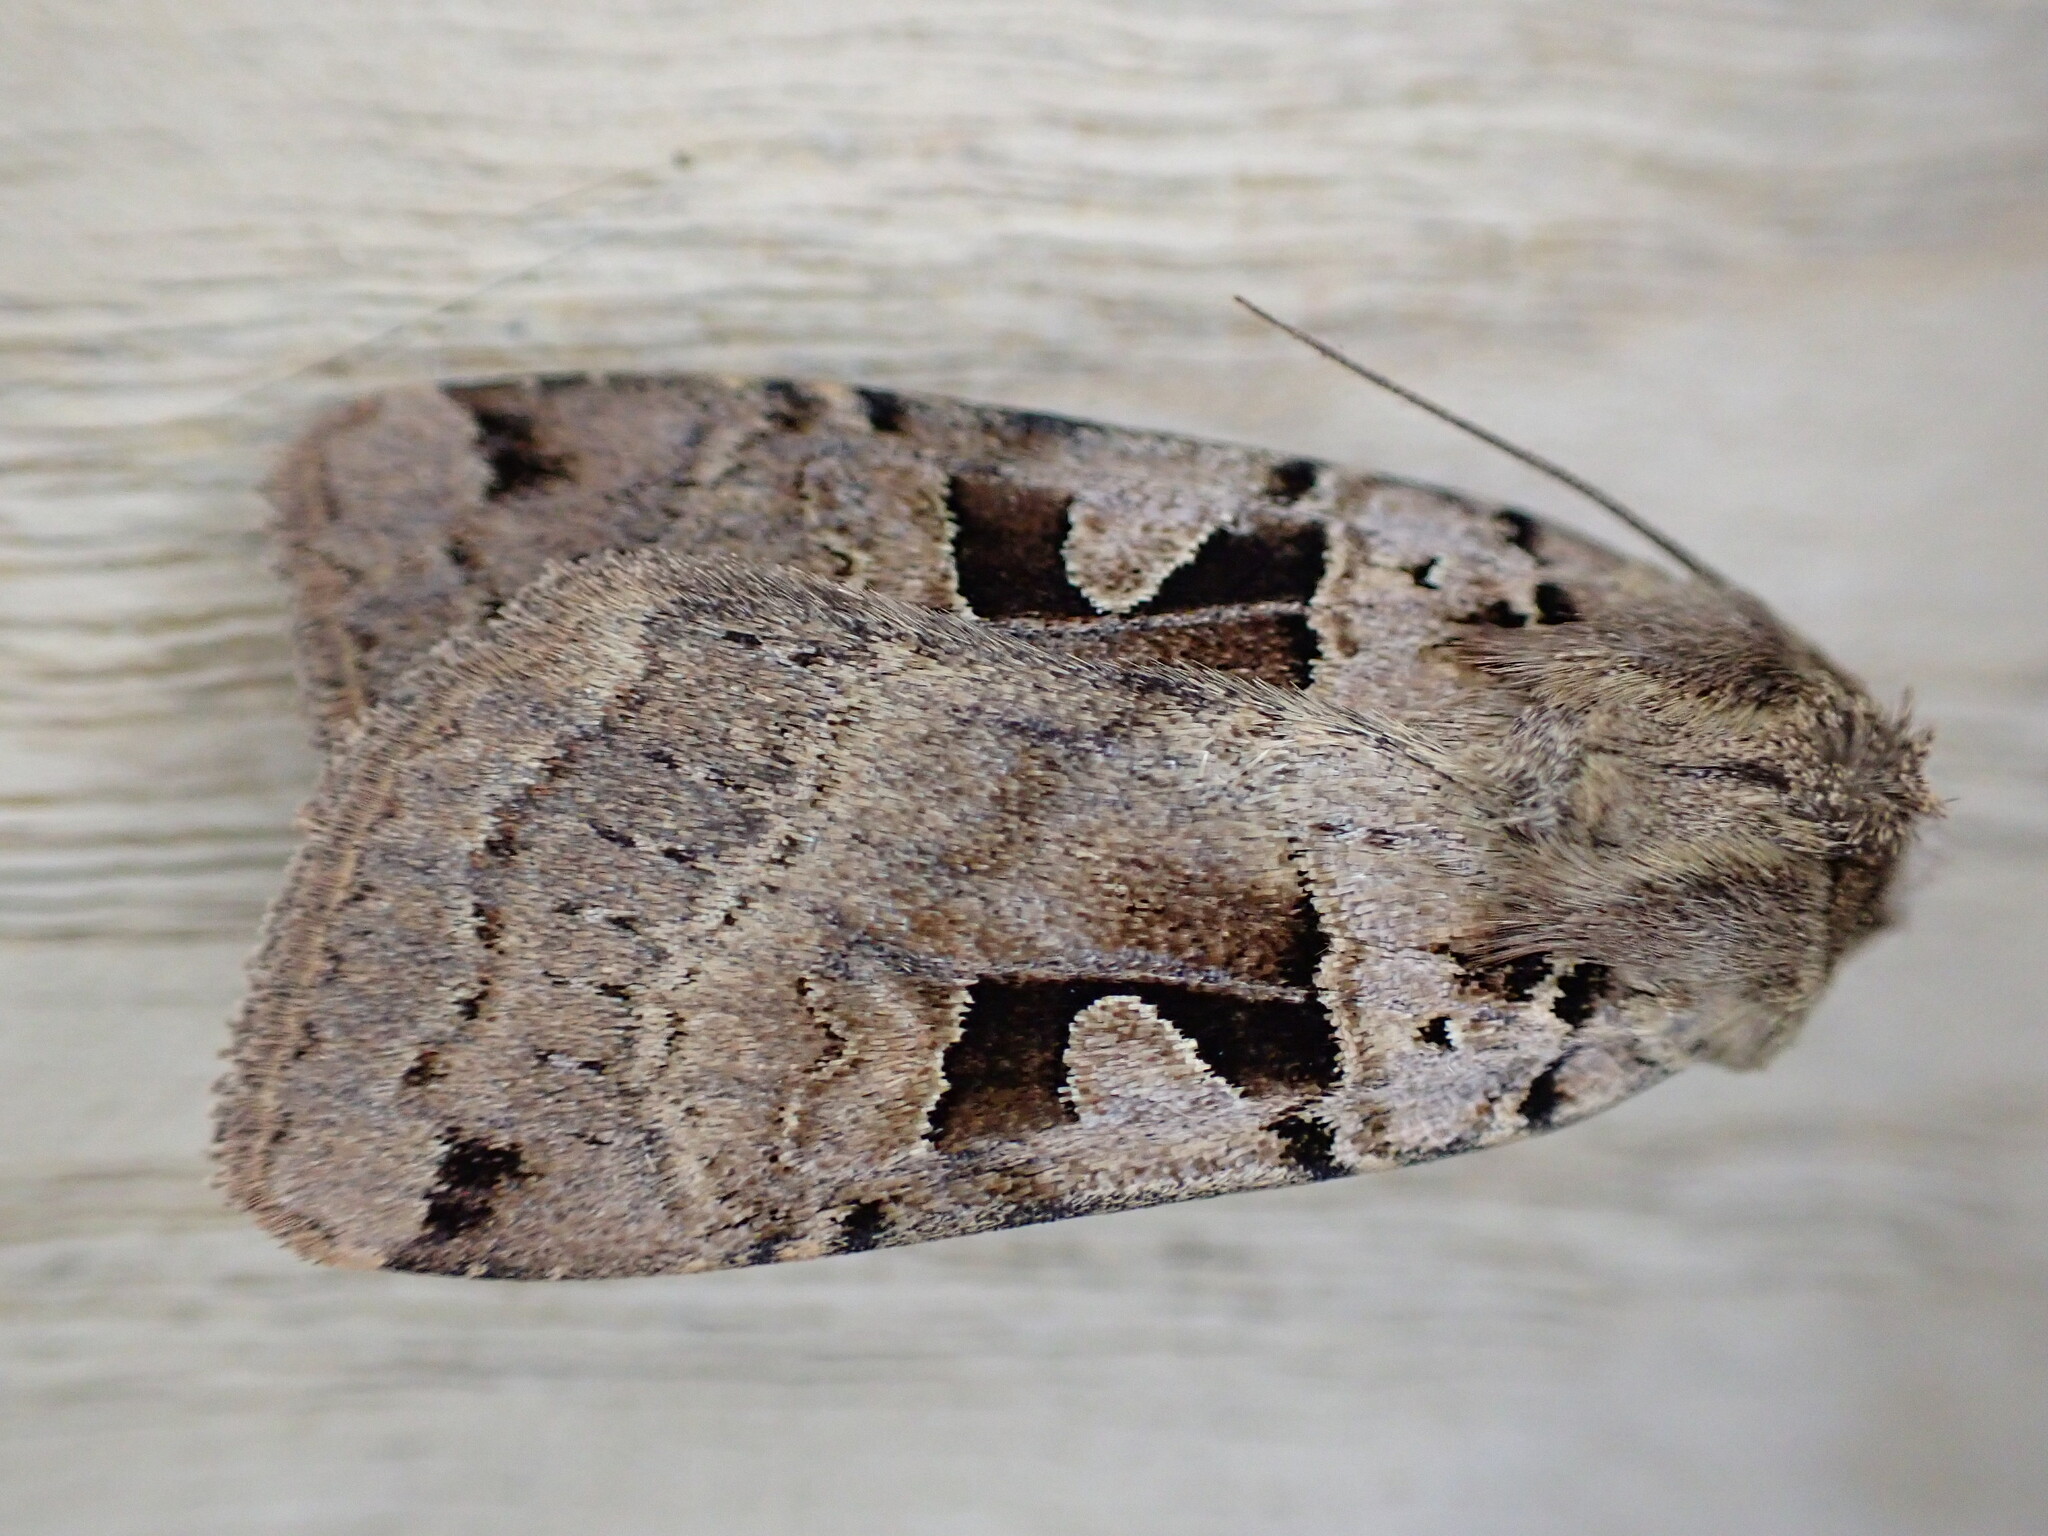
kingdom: Animalia
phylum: Arthropoda
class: Insecta
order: Lepidoptera
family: Noctuidae
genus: Xestia
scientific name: Xestia triangulum
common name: Double square-spot
